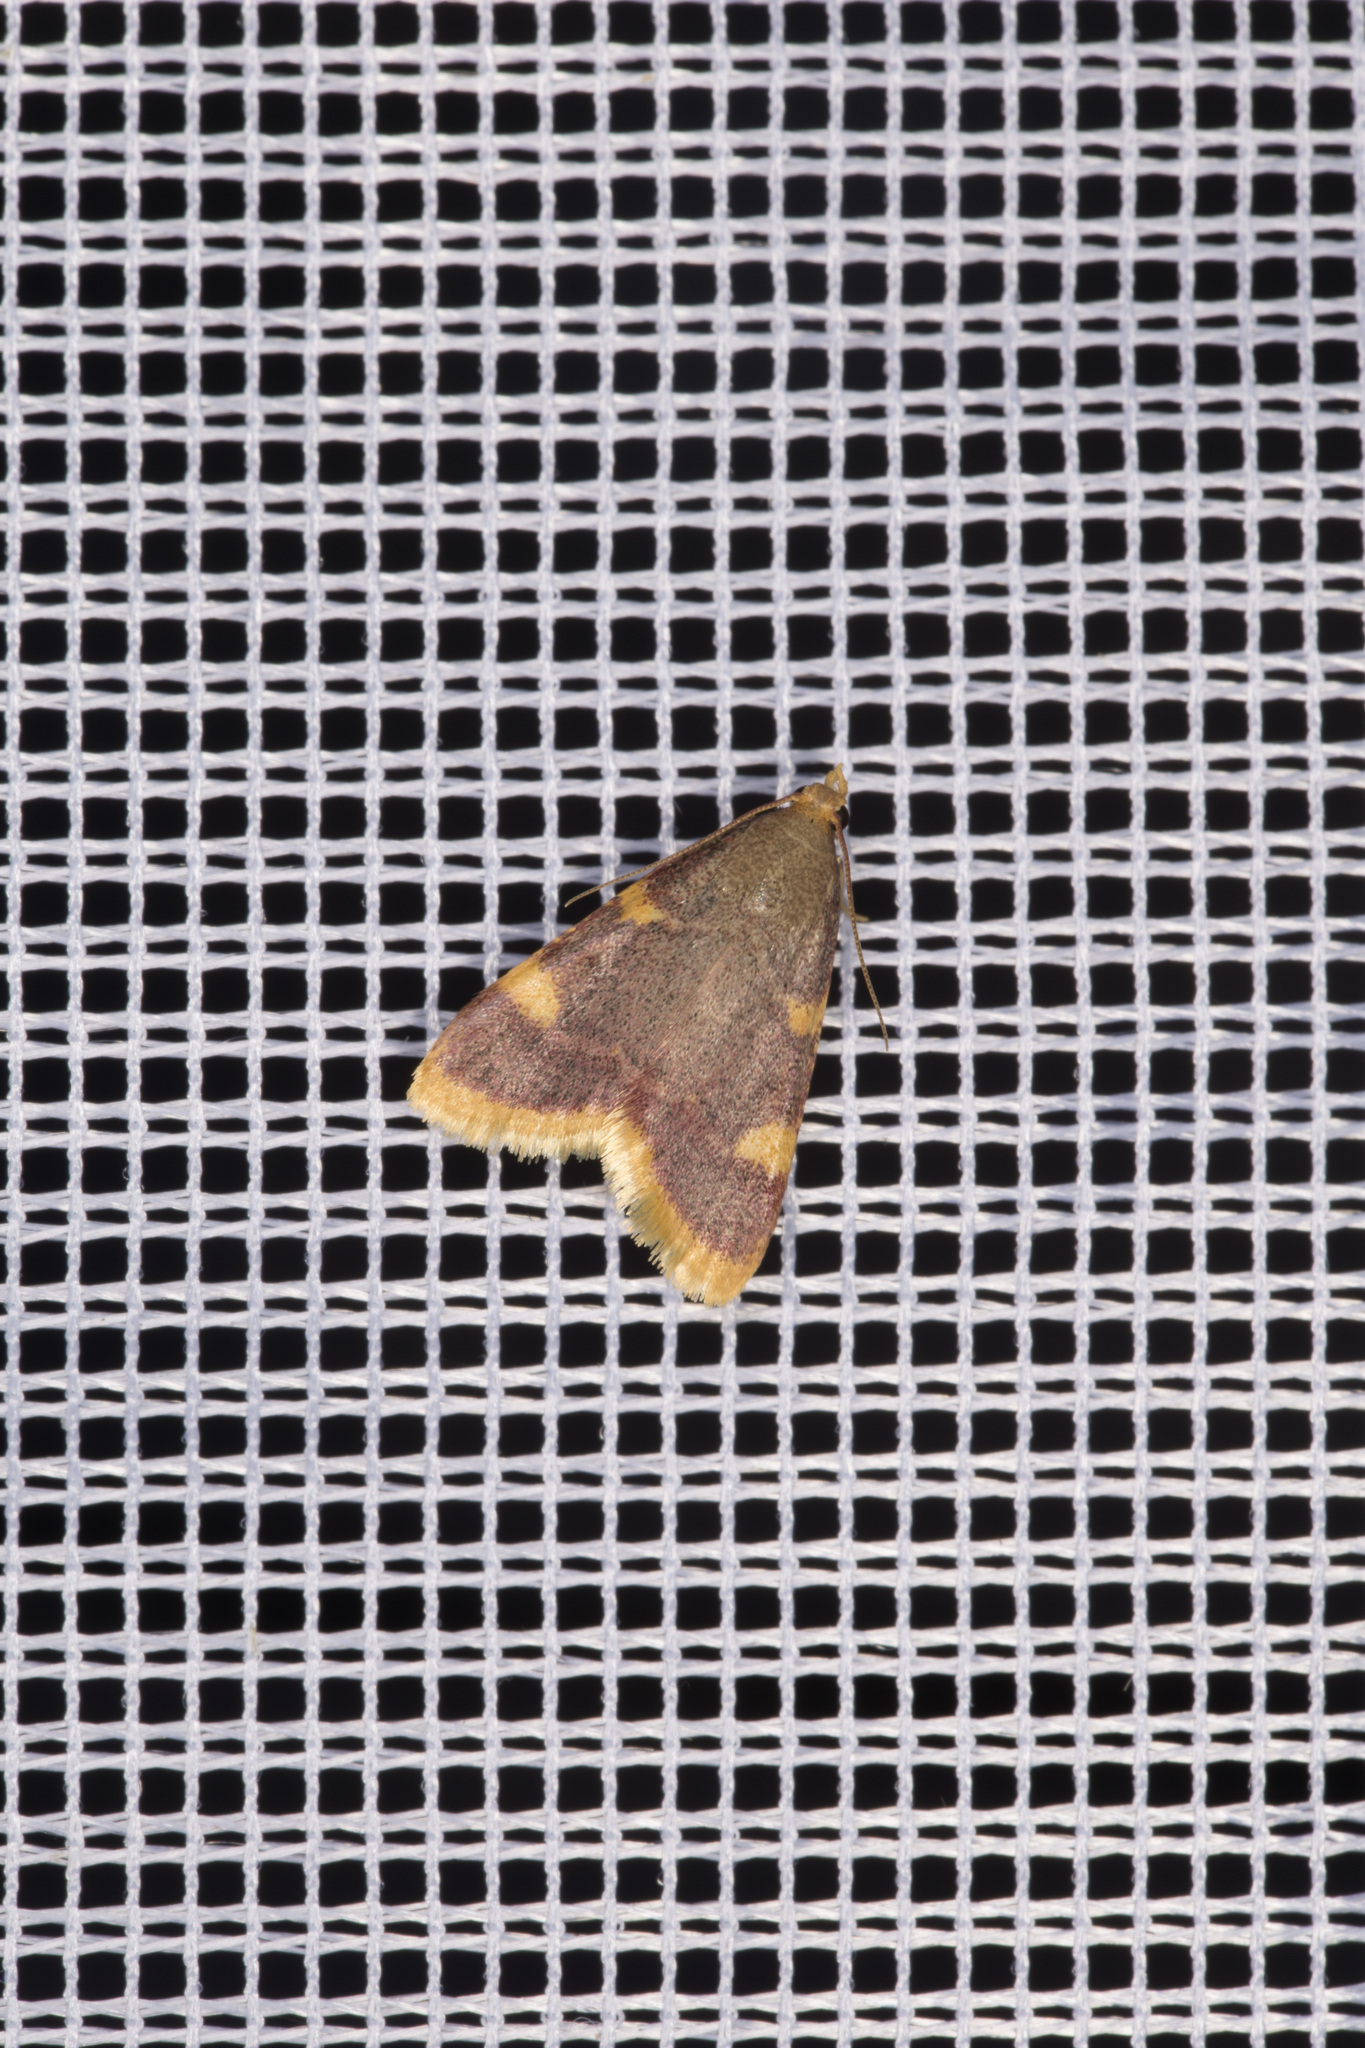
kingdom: Animalia
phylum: Arthropoda
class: Insecta
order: Lepidoptera
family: Pyralidae
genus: Hypsopygia
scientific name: Hypsopygia costalis
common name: Gold triangle
